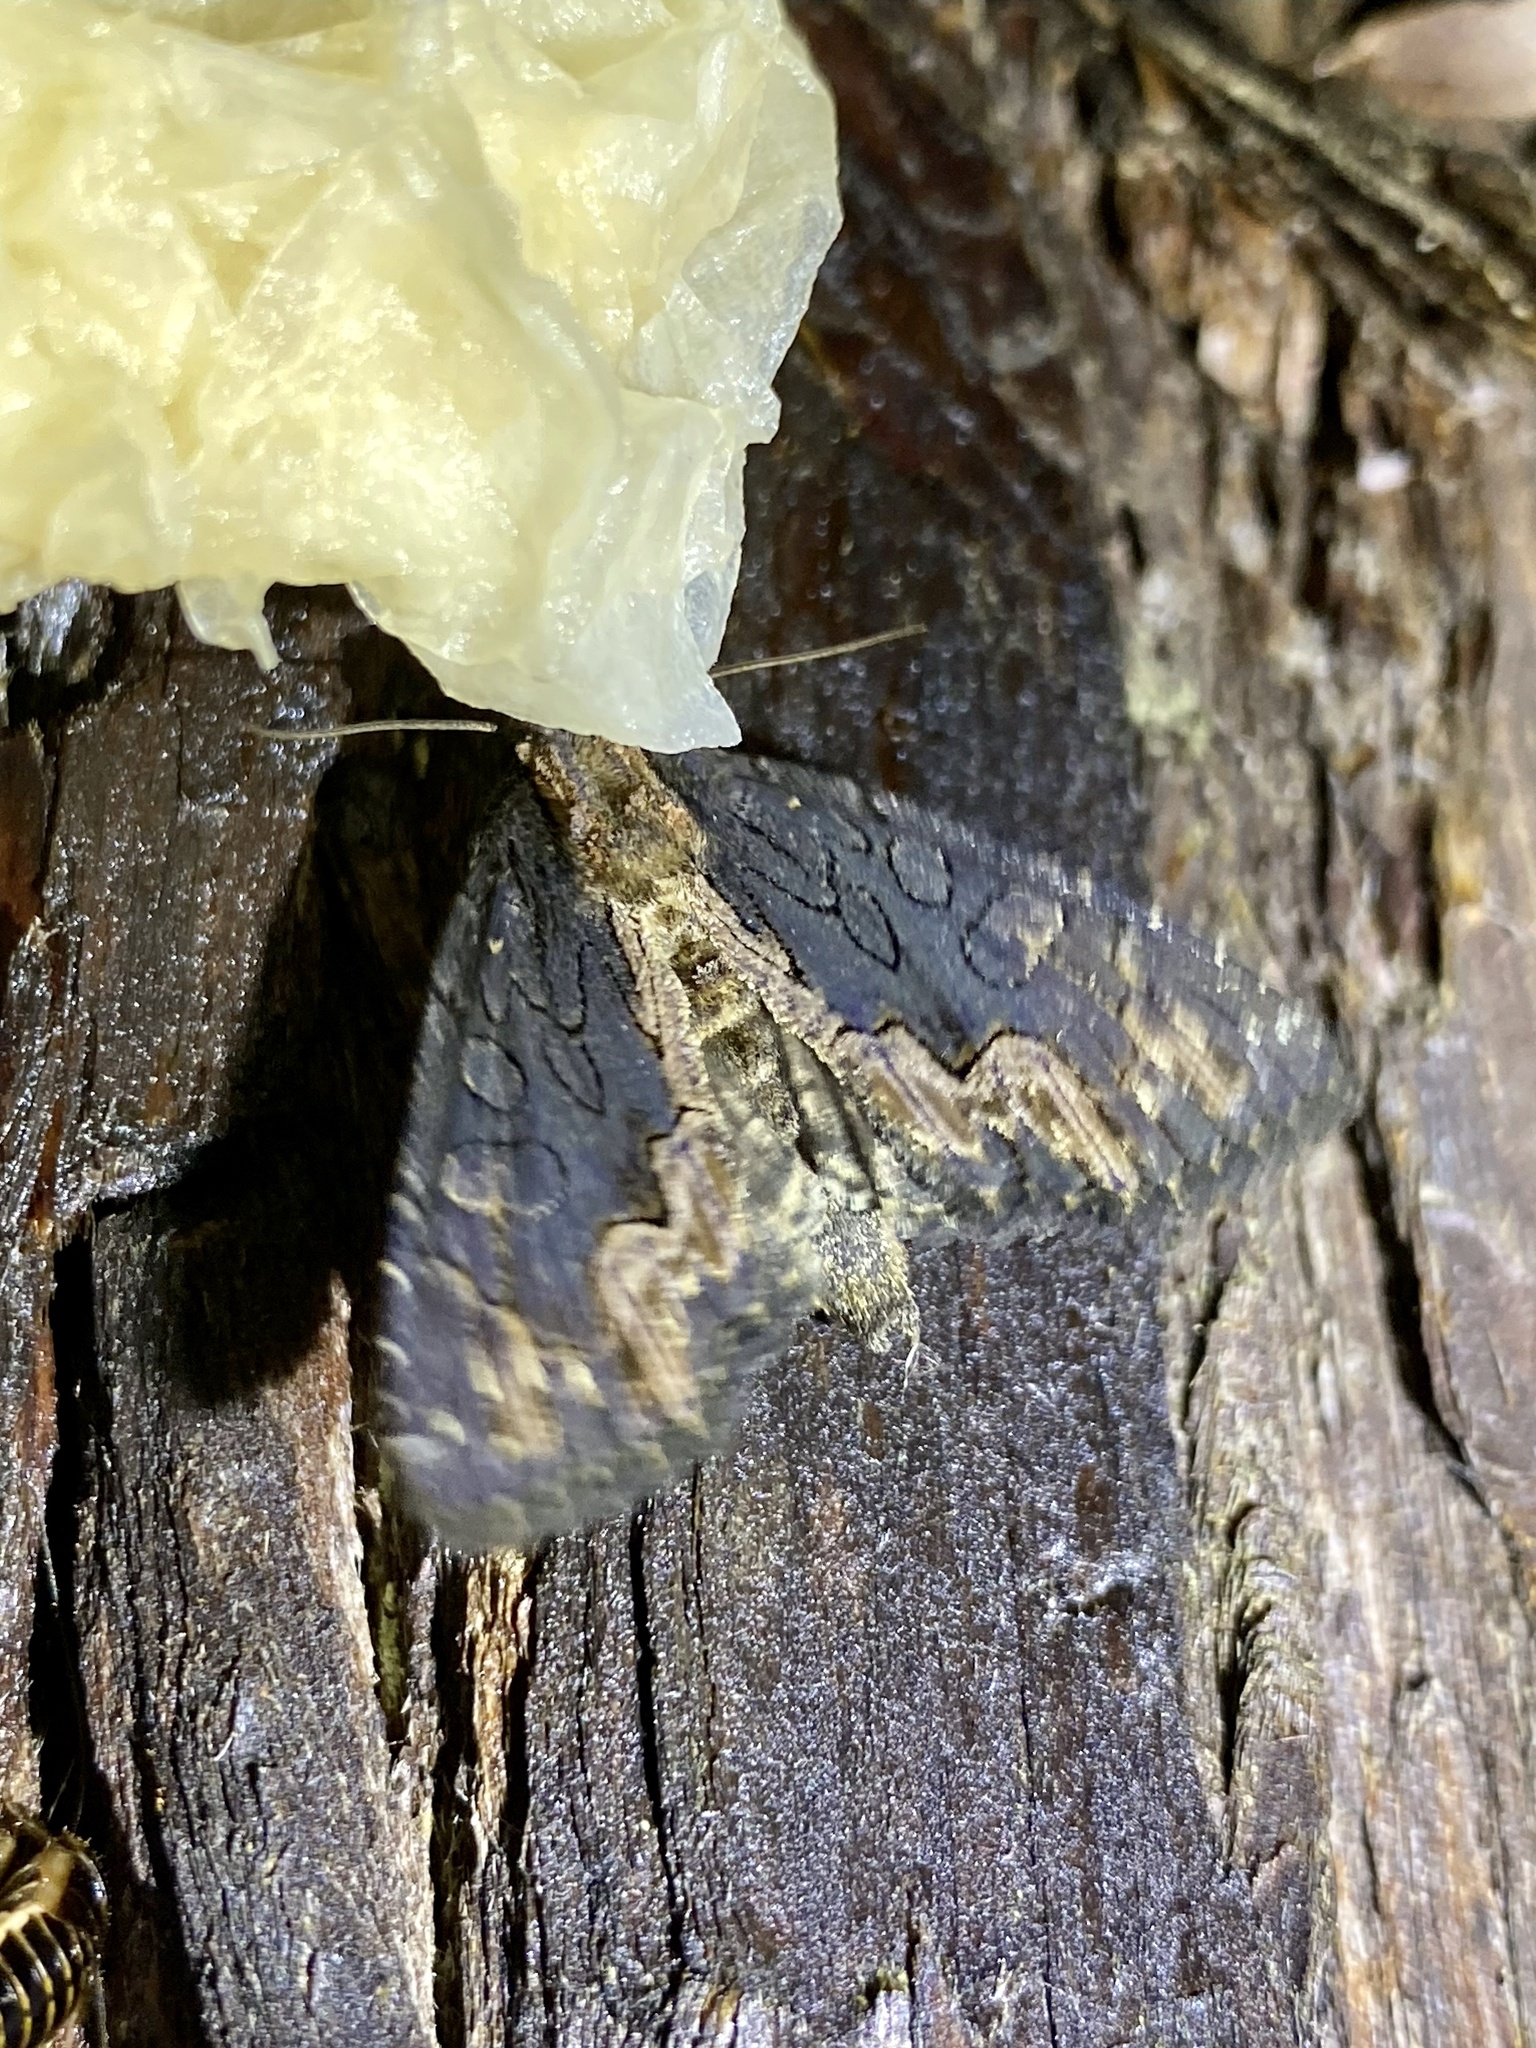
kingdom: Animalia
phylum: Arthropoda
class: Insecta
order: Lepidoptera
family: Noctuidae
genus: Dypterygia
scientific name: Dypterygia caliginosa
